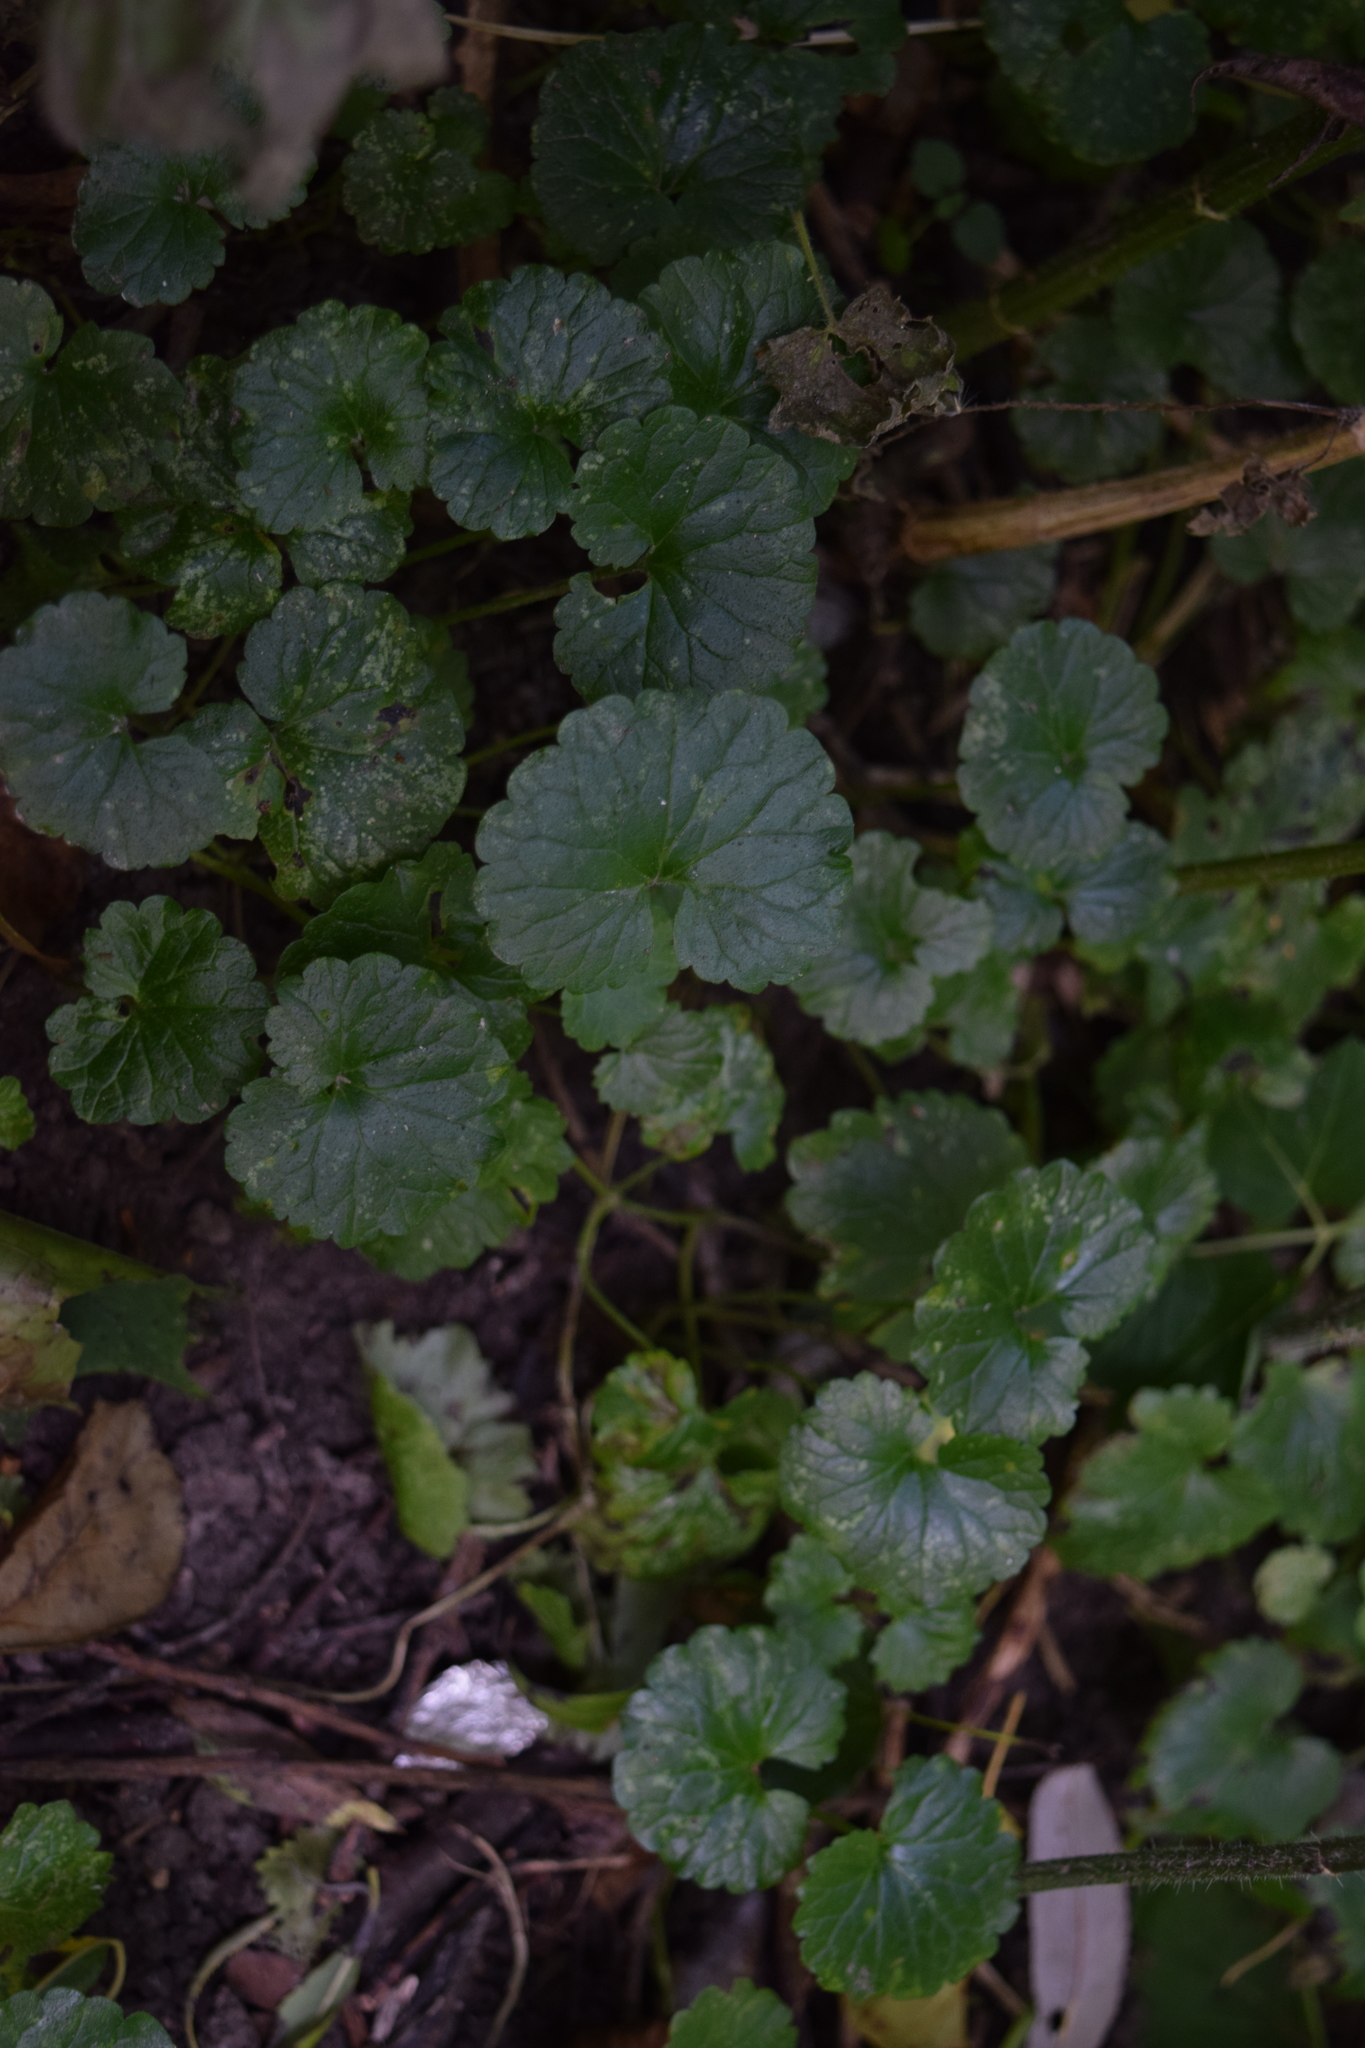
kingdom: Plantae
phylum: Tracheophyta
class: Magnoliopsida
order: Lamiales
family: Lamiaceae
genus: Glechoma
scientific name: Glechoma hederacea
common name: Ground ivy
